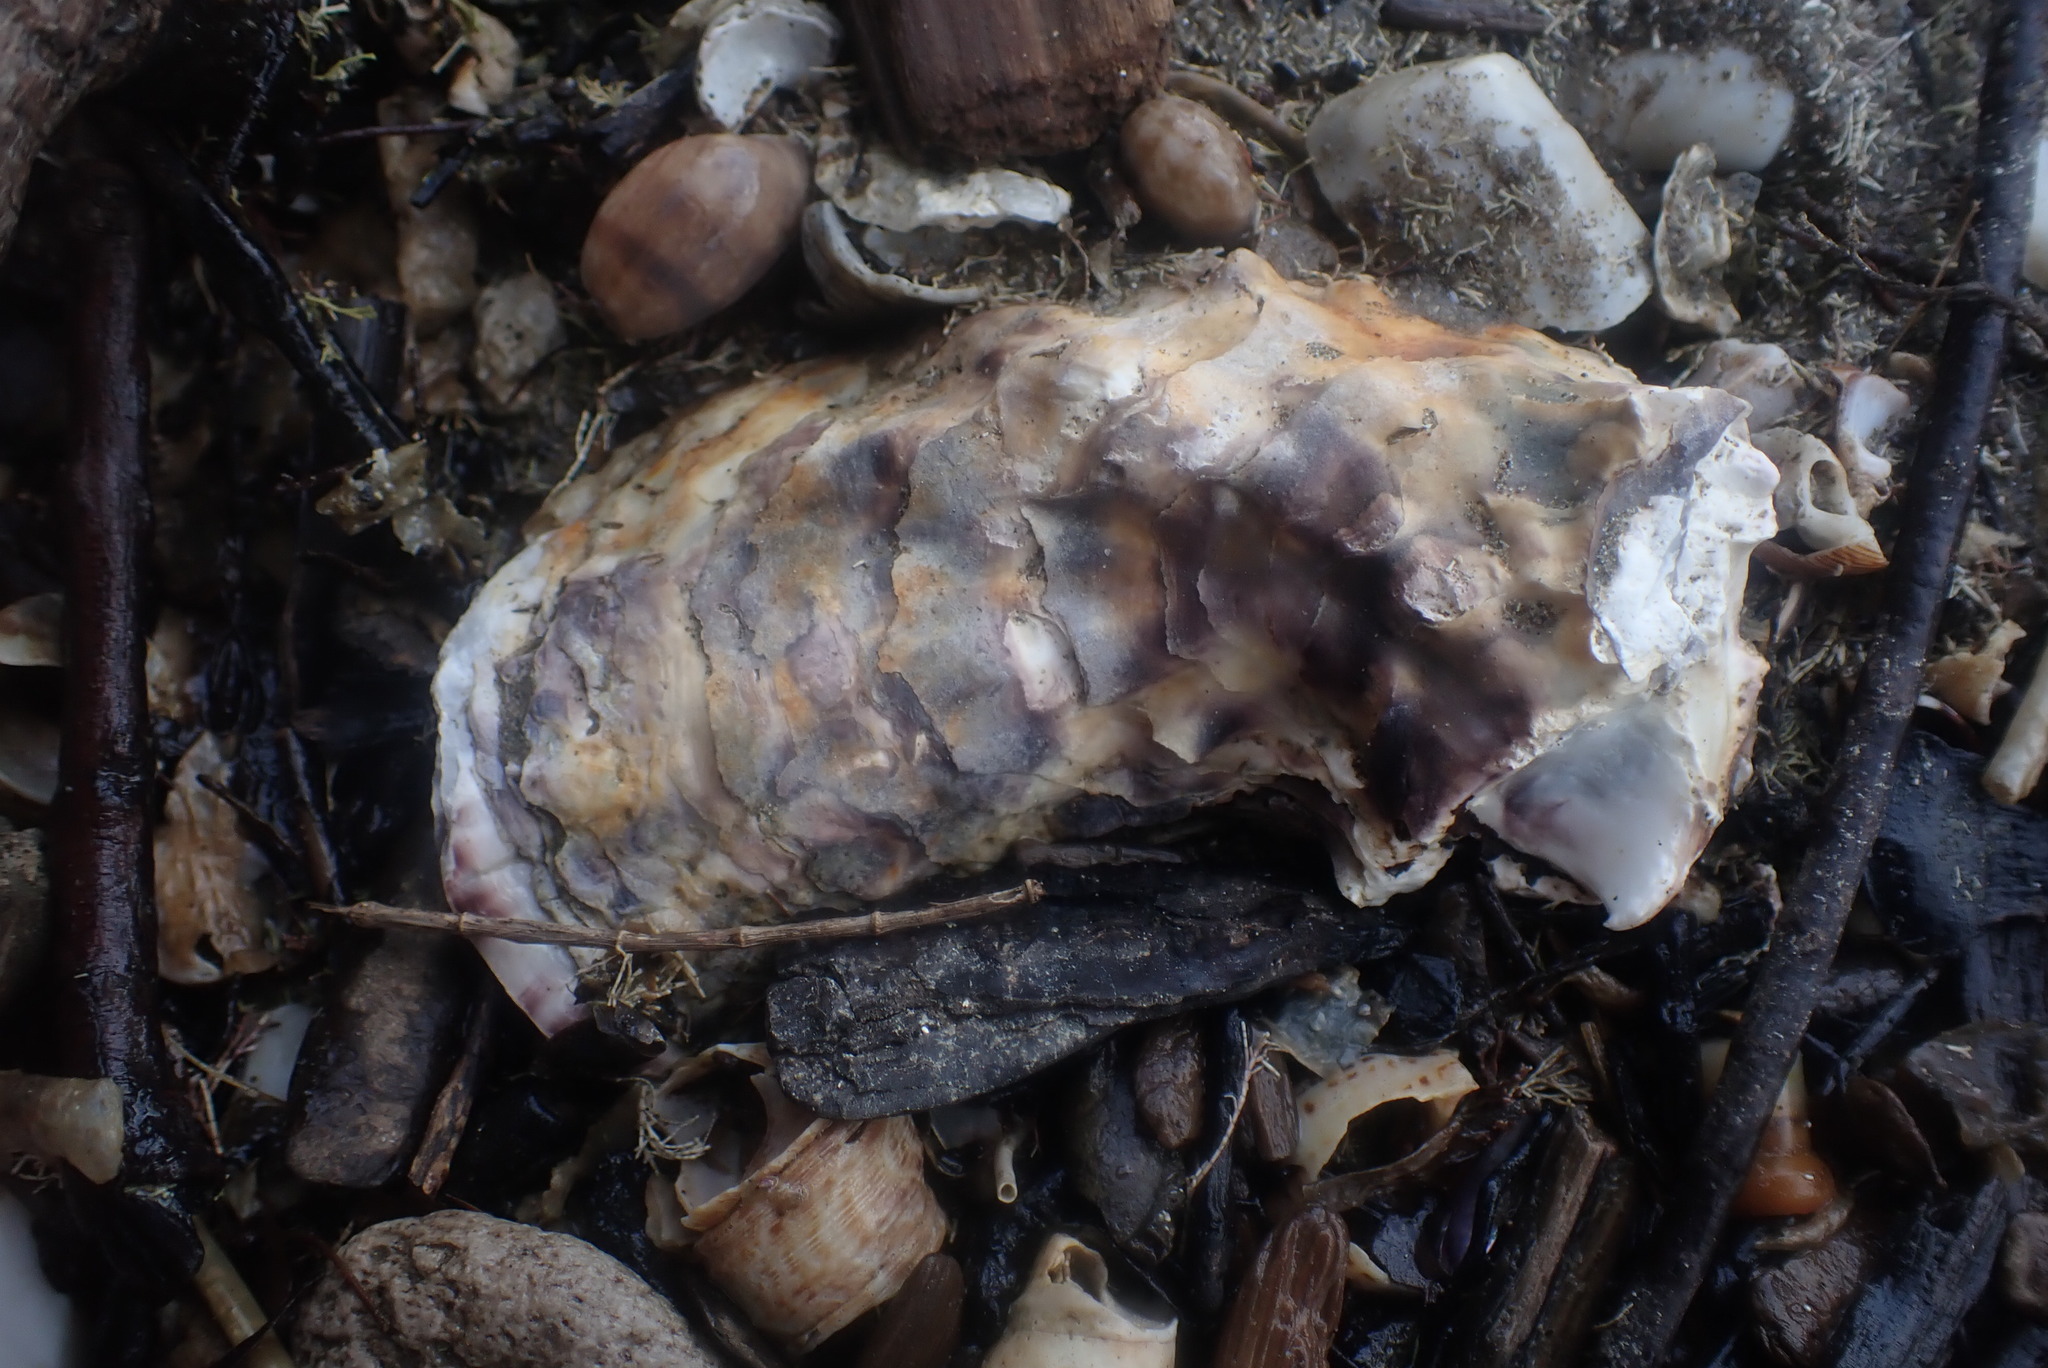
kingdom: Animalia
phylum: Mollusca
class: Bivalvia
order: Ostreida
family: Ostreidae
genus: Magallana
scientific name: Magallana gigas
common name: Pacific oyster
